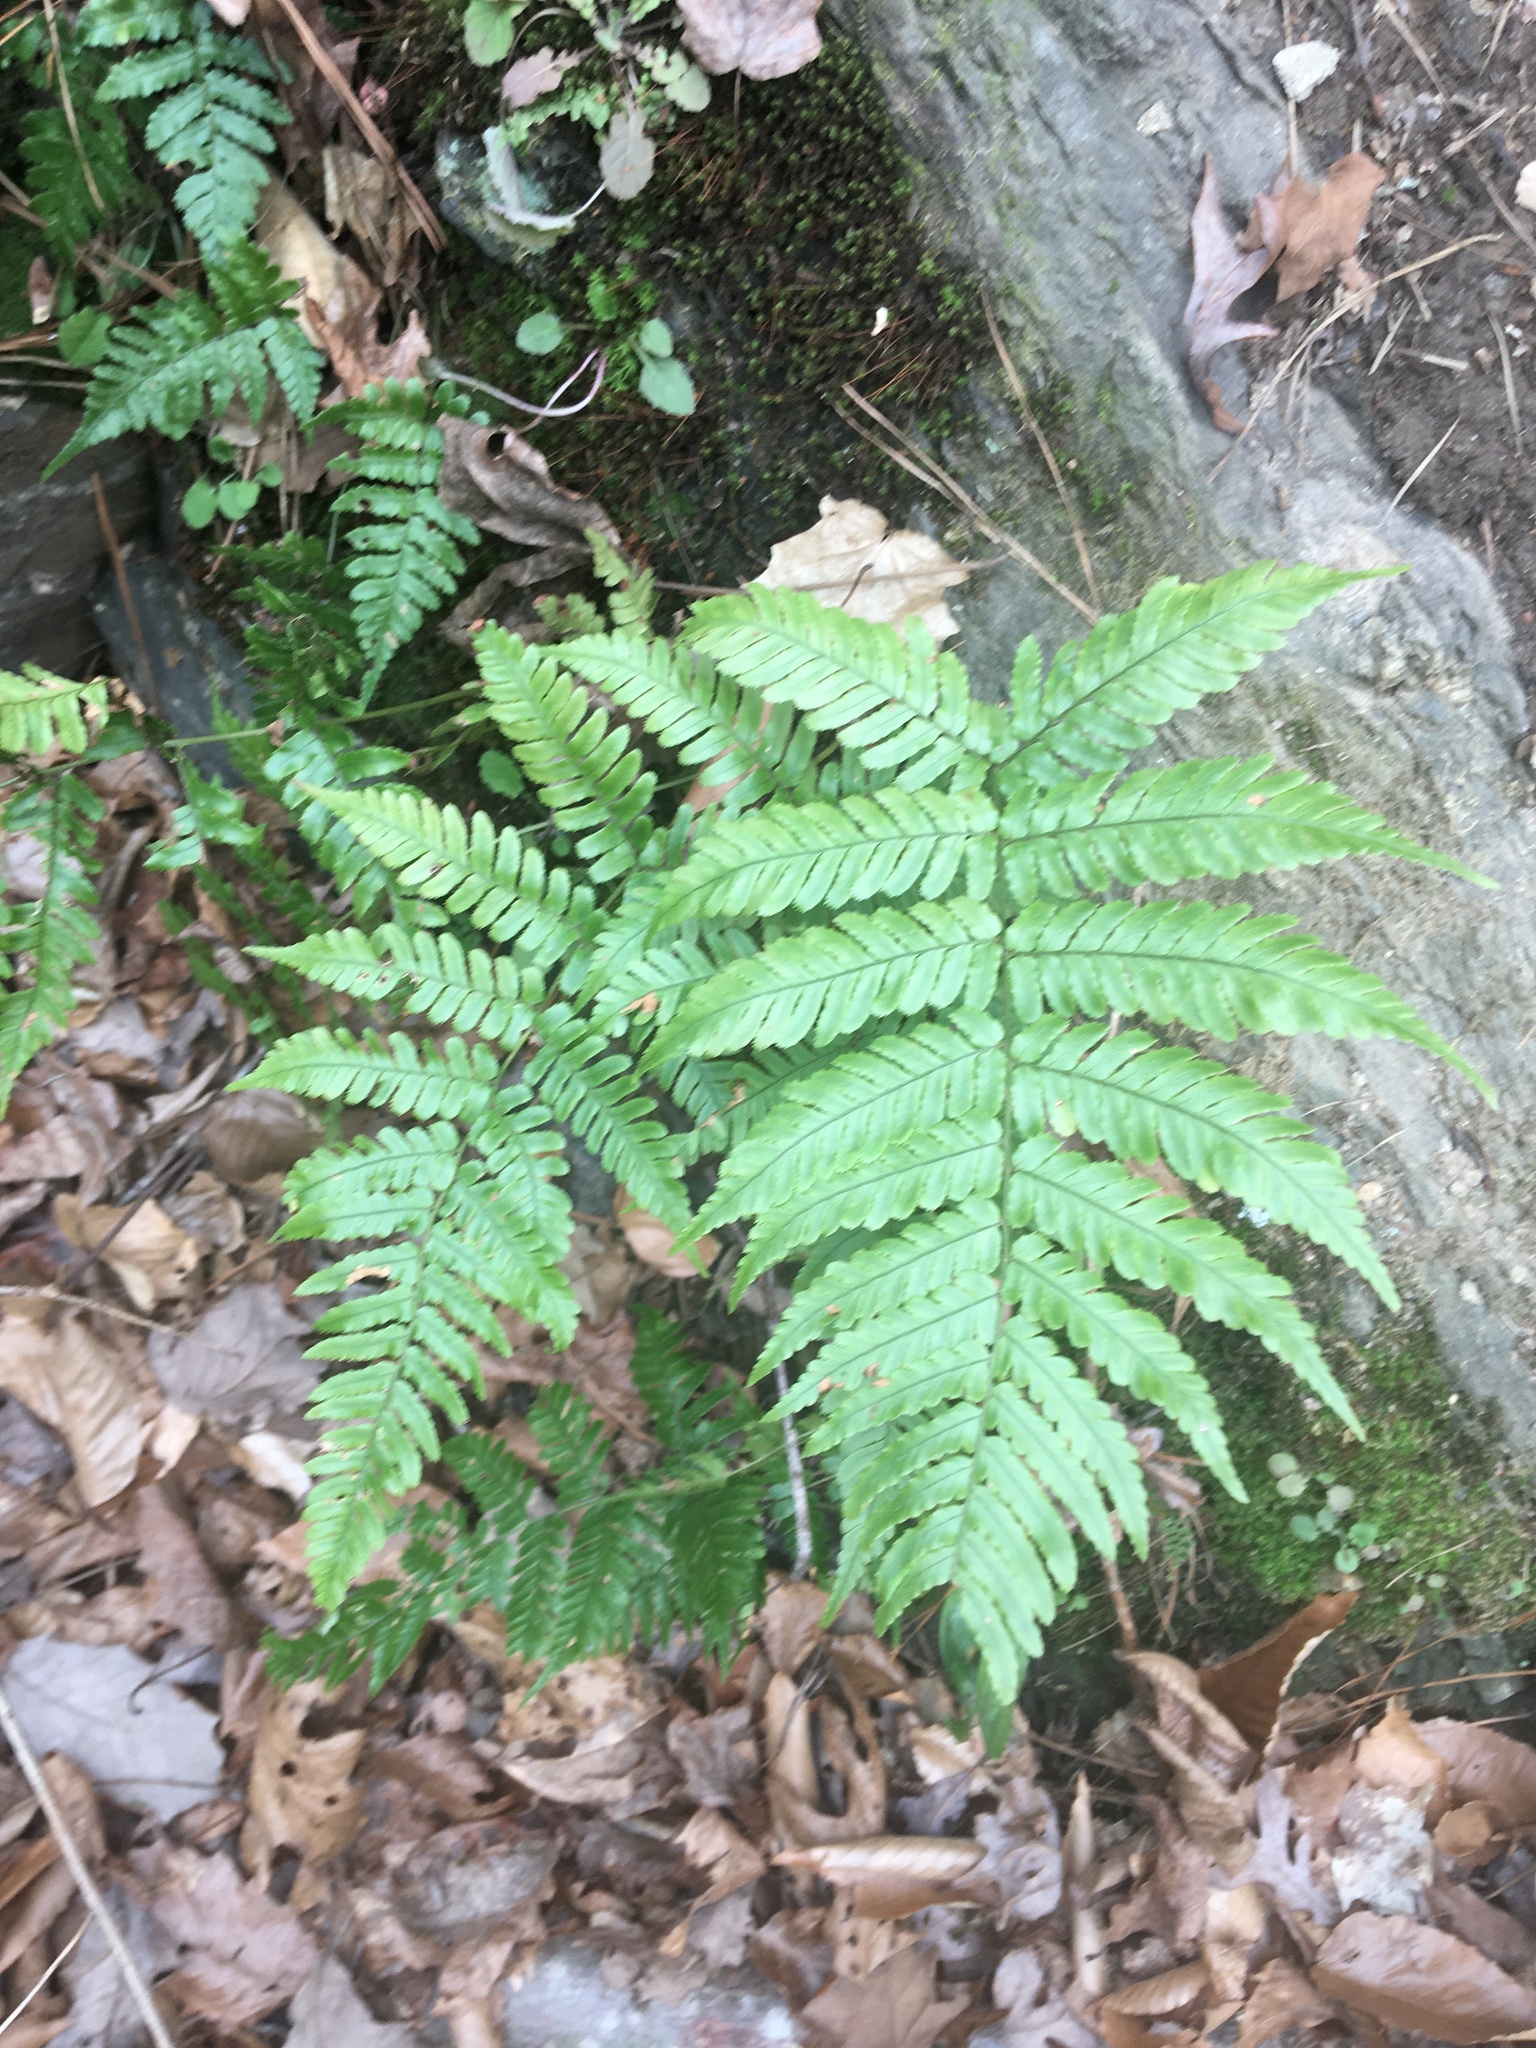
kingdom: Plantae
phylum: Tracheophyta
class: Polypodiopsida
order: Polypodiales
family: Dryopteridaceae
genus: Dryopteris
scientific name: Dryopteris erythrosora
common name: Autumn fern
